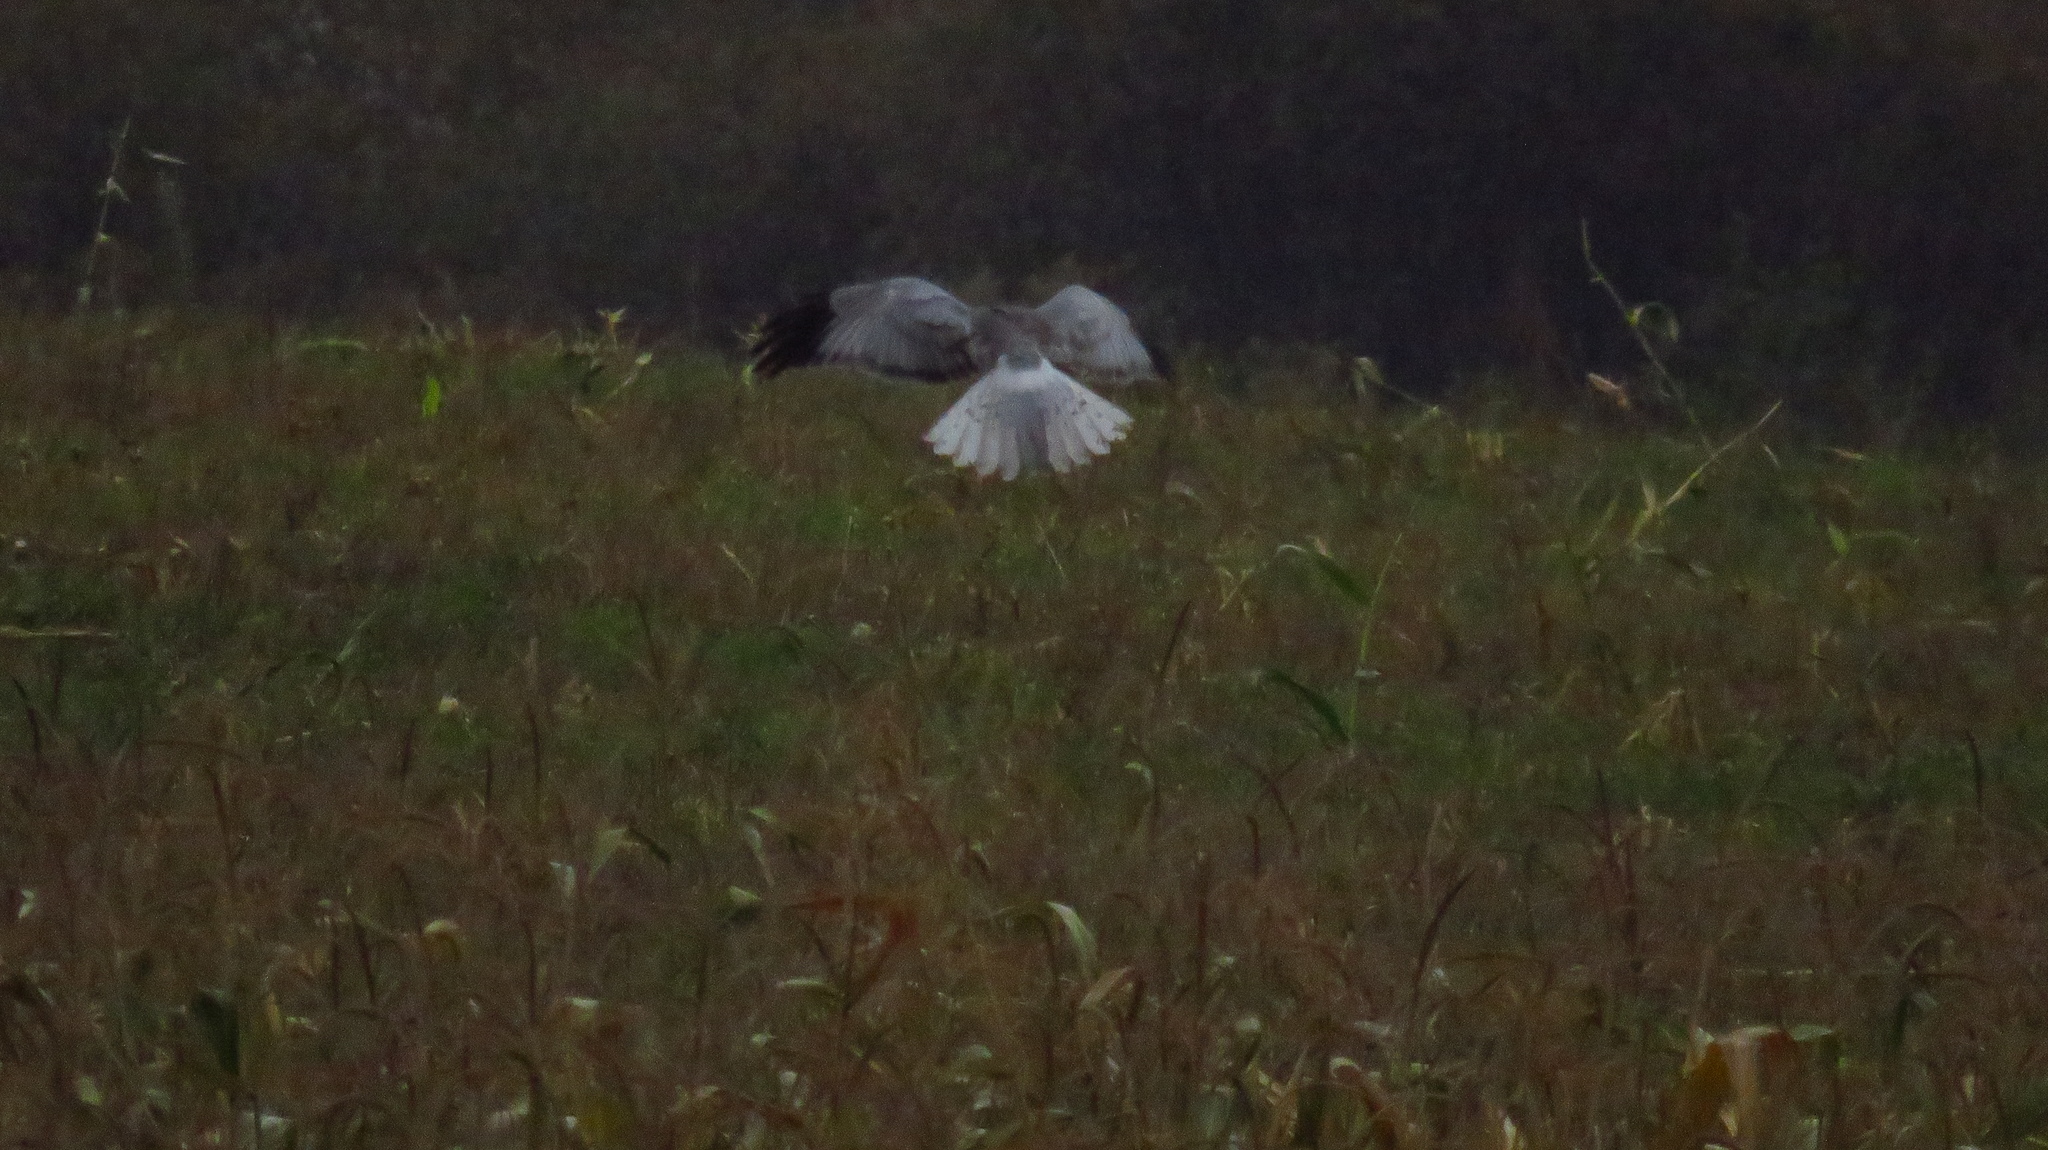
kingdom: Animalia
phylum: Chordata
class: Aves
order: Accipitriformes
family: Accipitridae
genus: Circus
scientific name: Circus cyaneus
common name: Hen harrier
